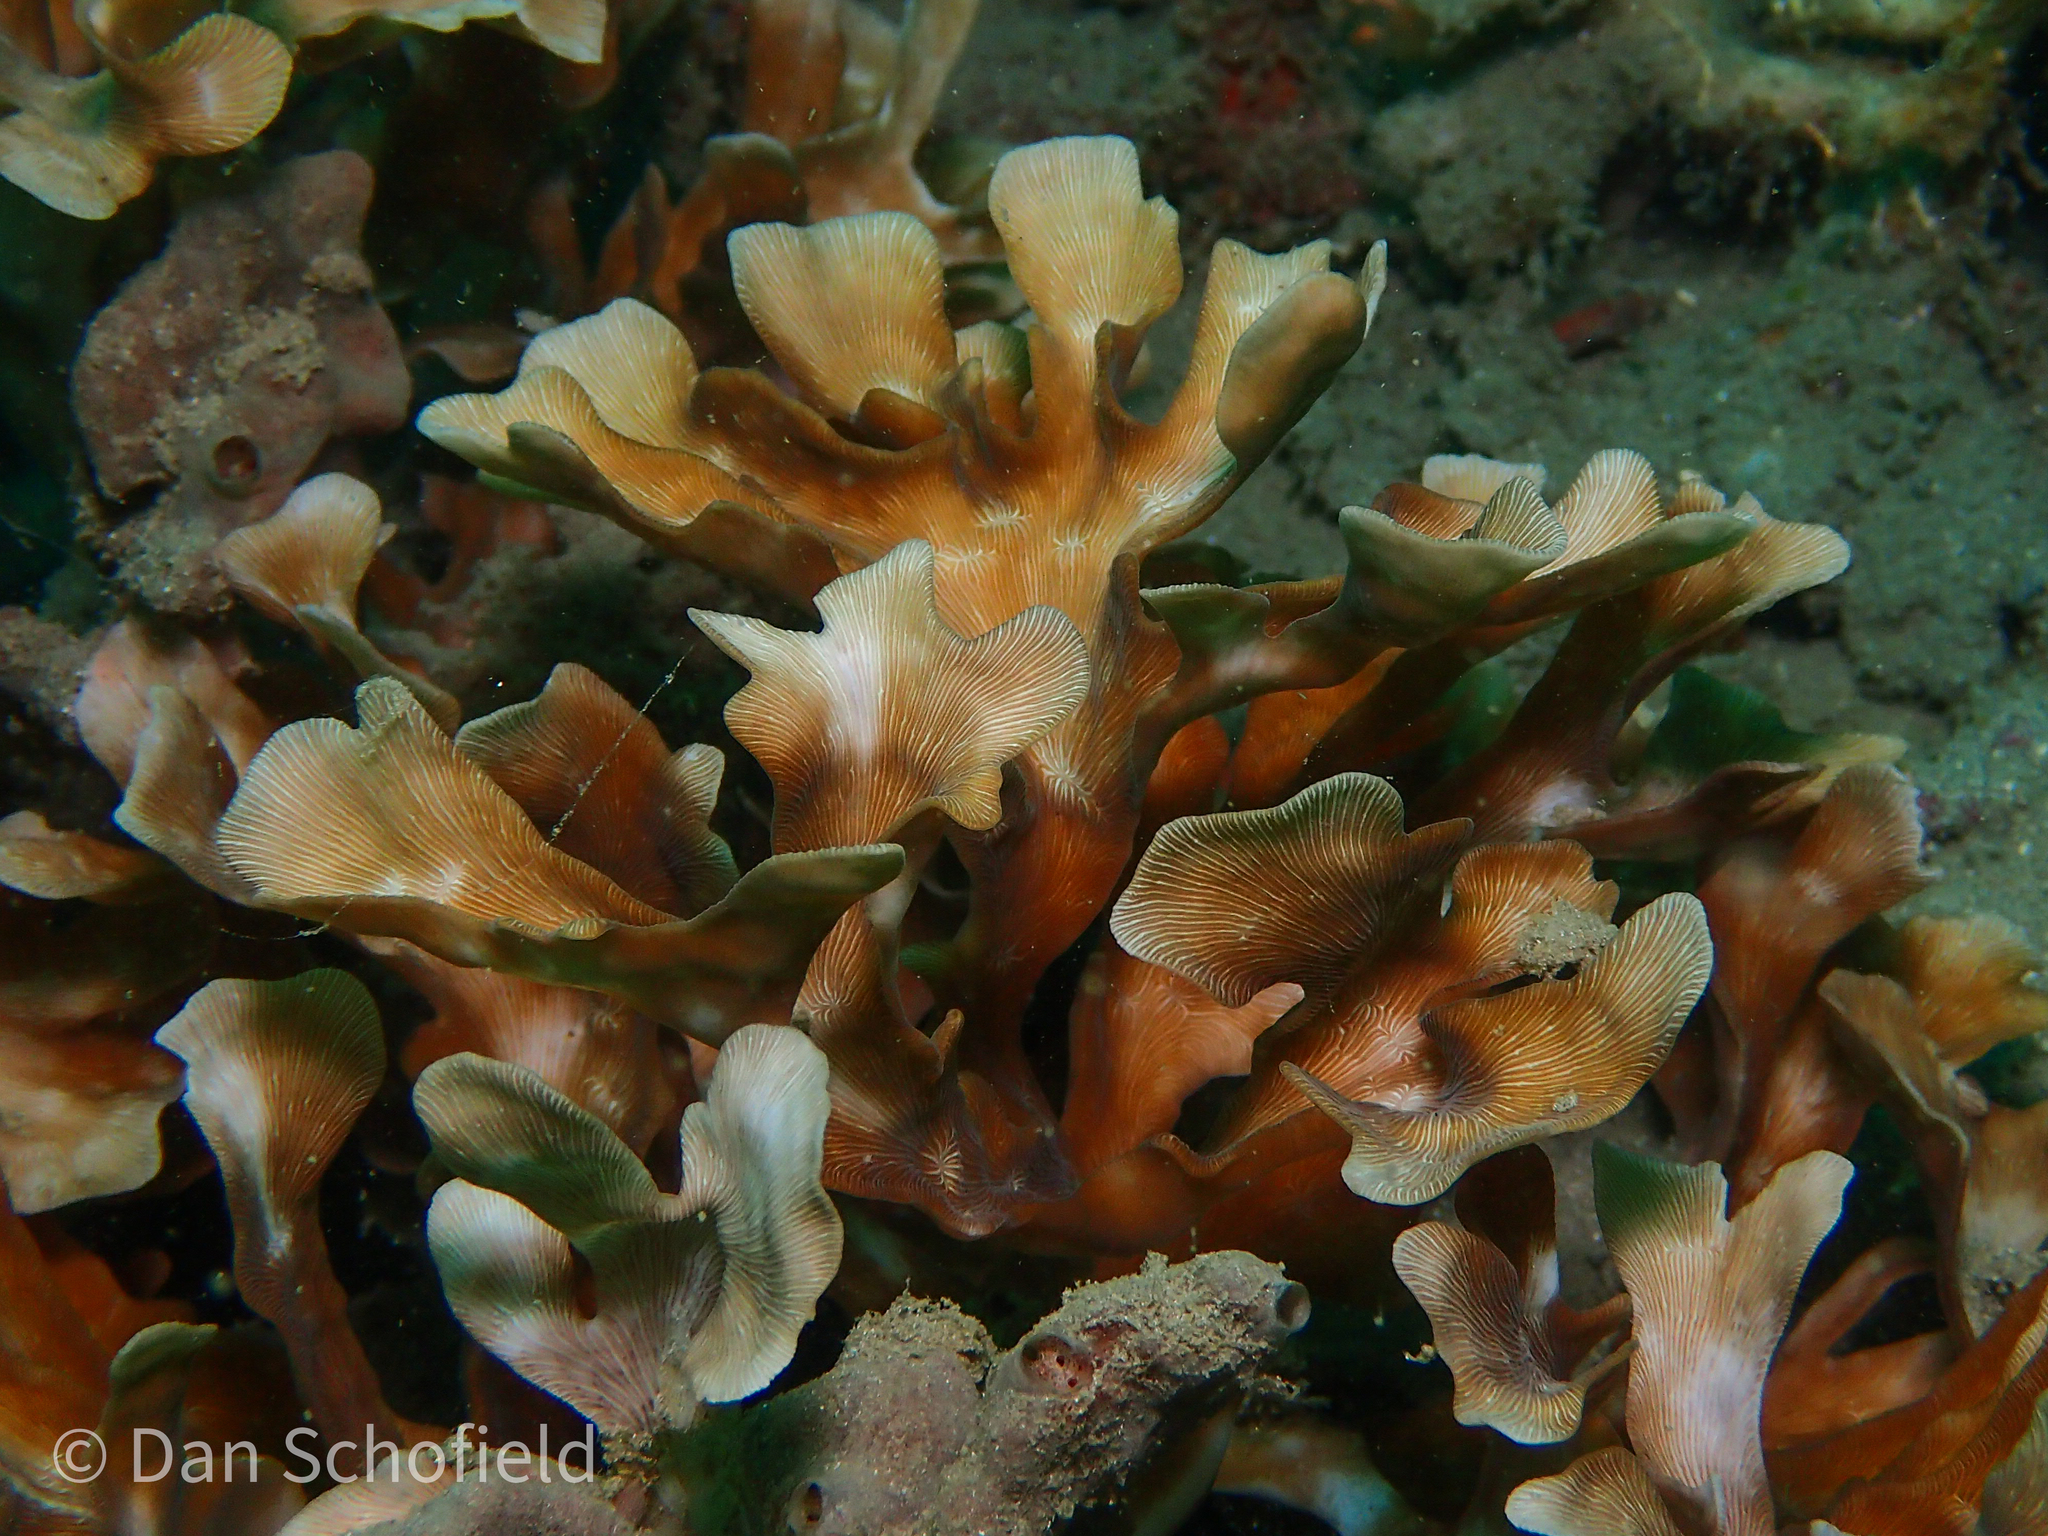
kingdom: Animalia
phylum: Cnidaria
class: Anthozoa
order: Scleractinia
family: Agariciidae
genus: Leptoseris
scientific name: Leptoseris papyracea
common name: Porcelain coral
